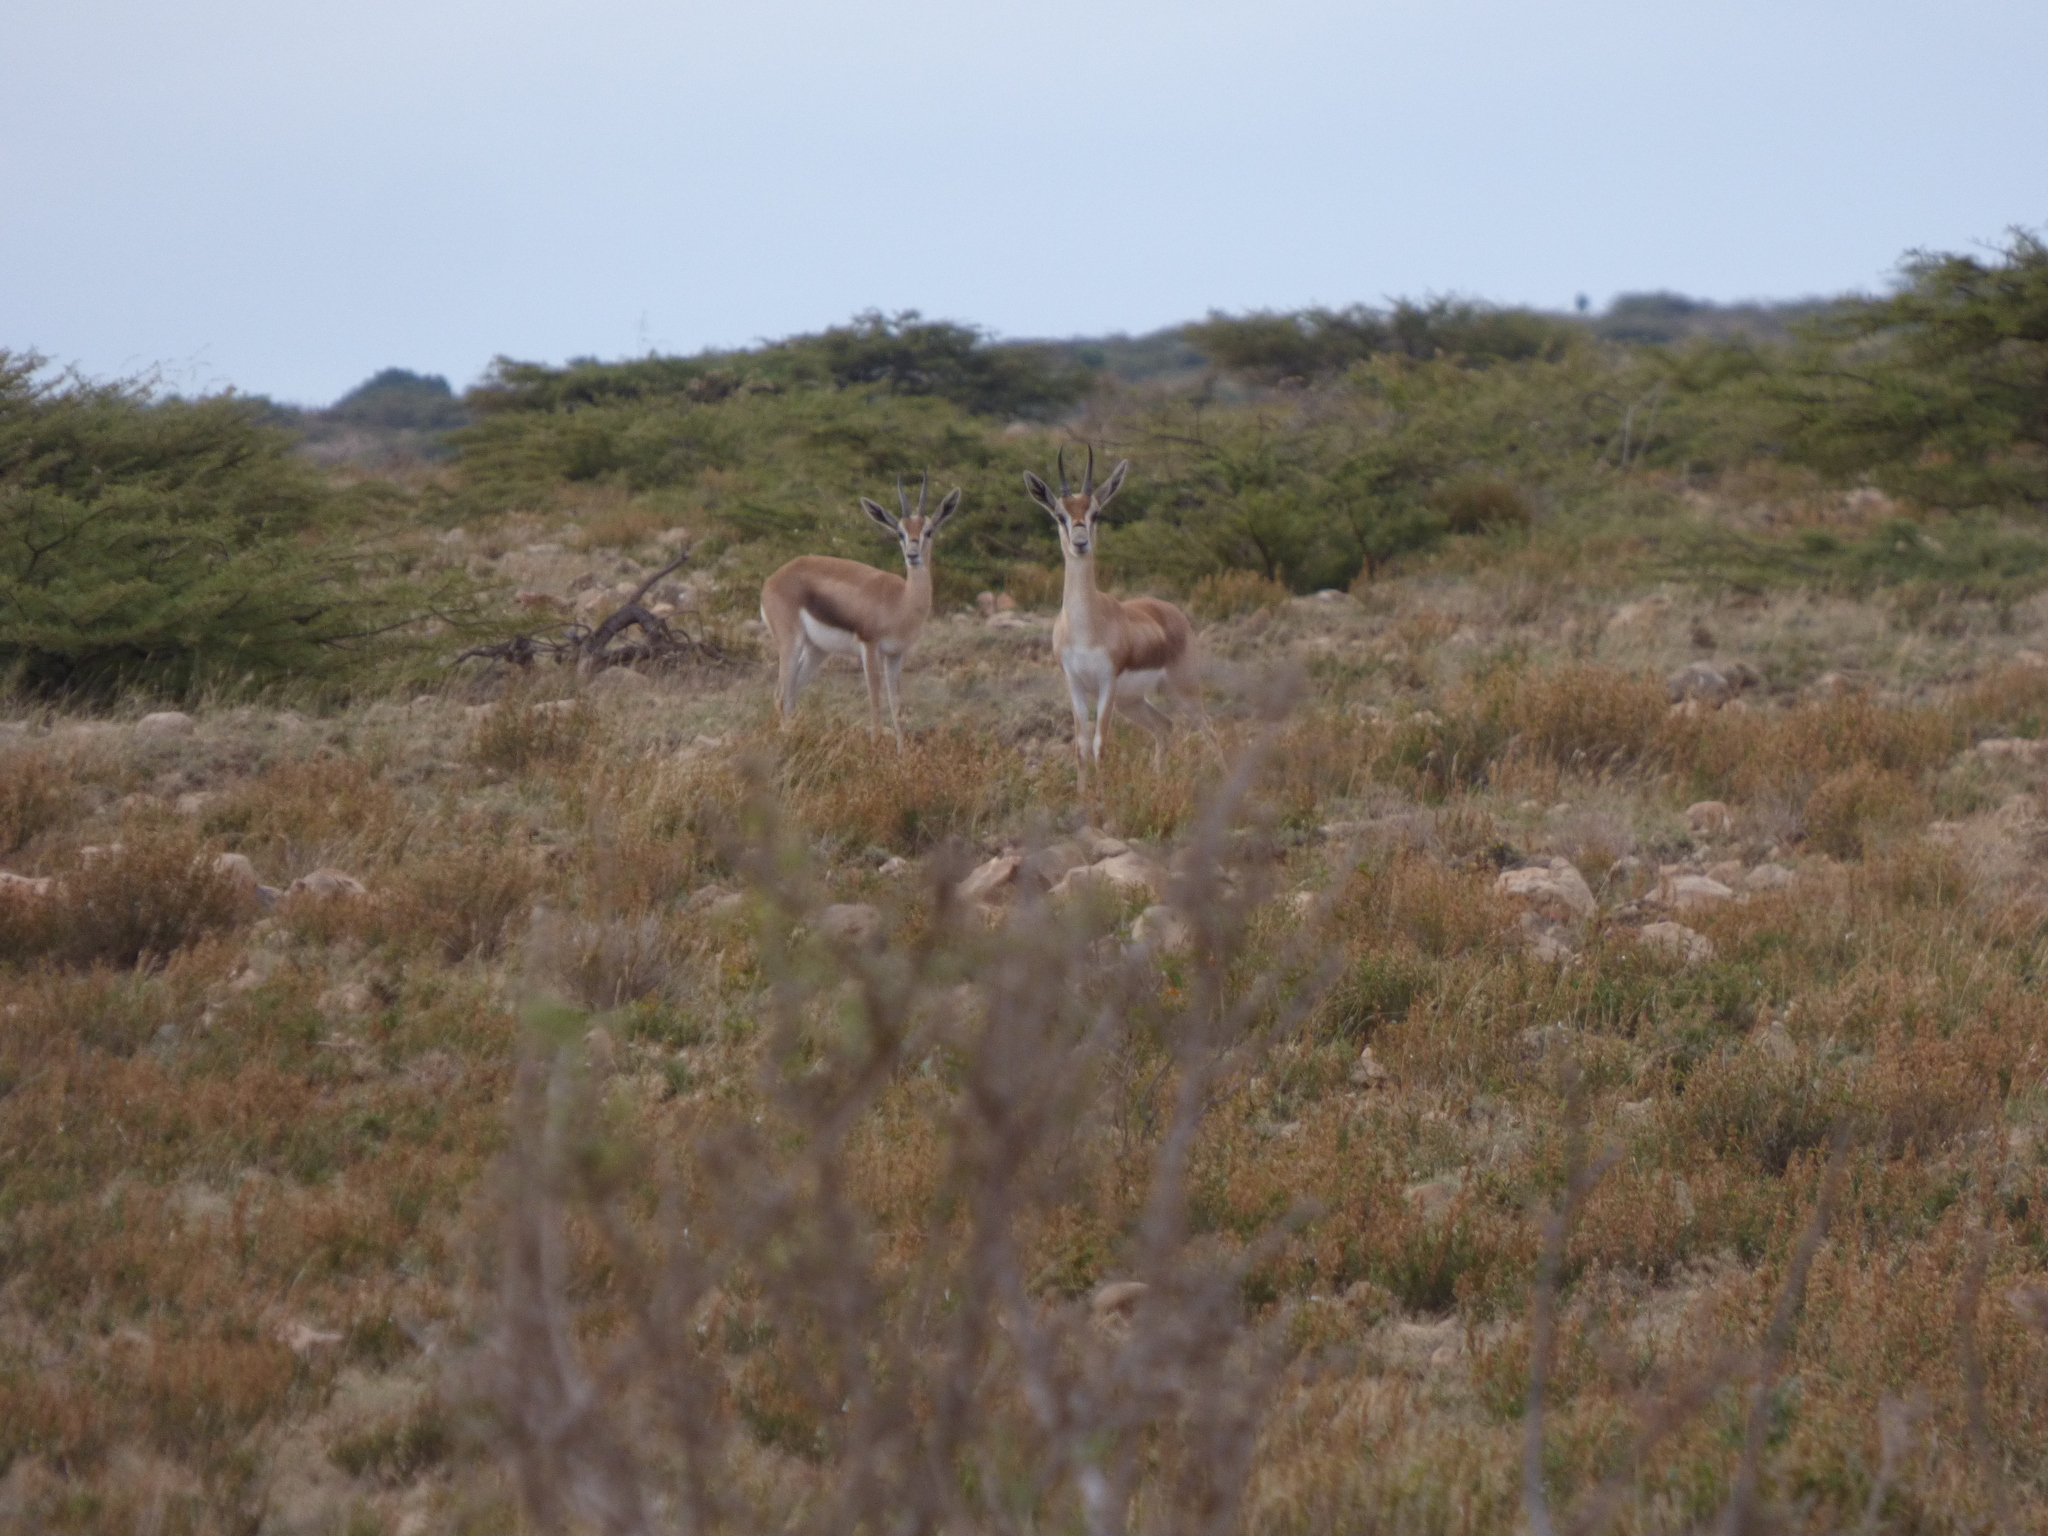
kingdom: Animalia
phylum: Chordata
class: Mammalia
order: Artiodactyla
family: Bovidae
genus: Gazella
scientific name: Gazella spekei
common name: Speke's gazelle
